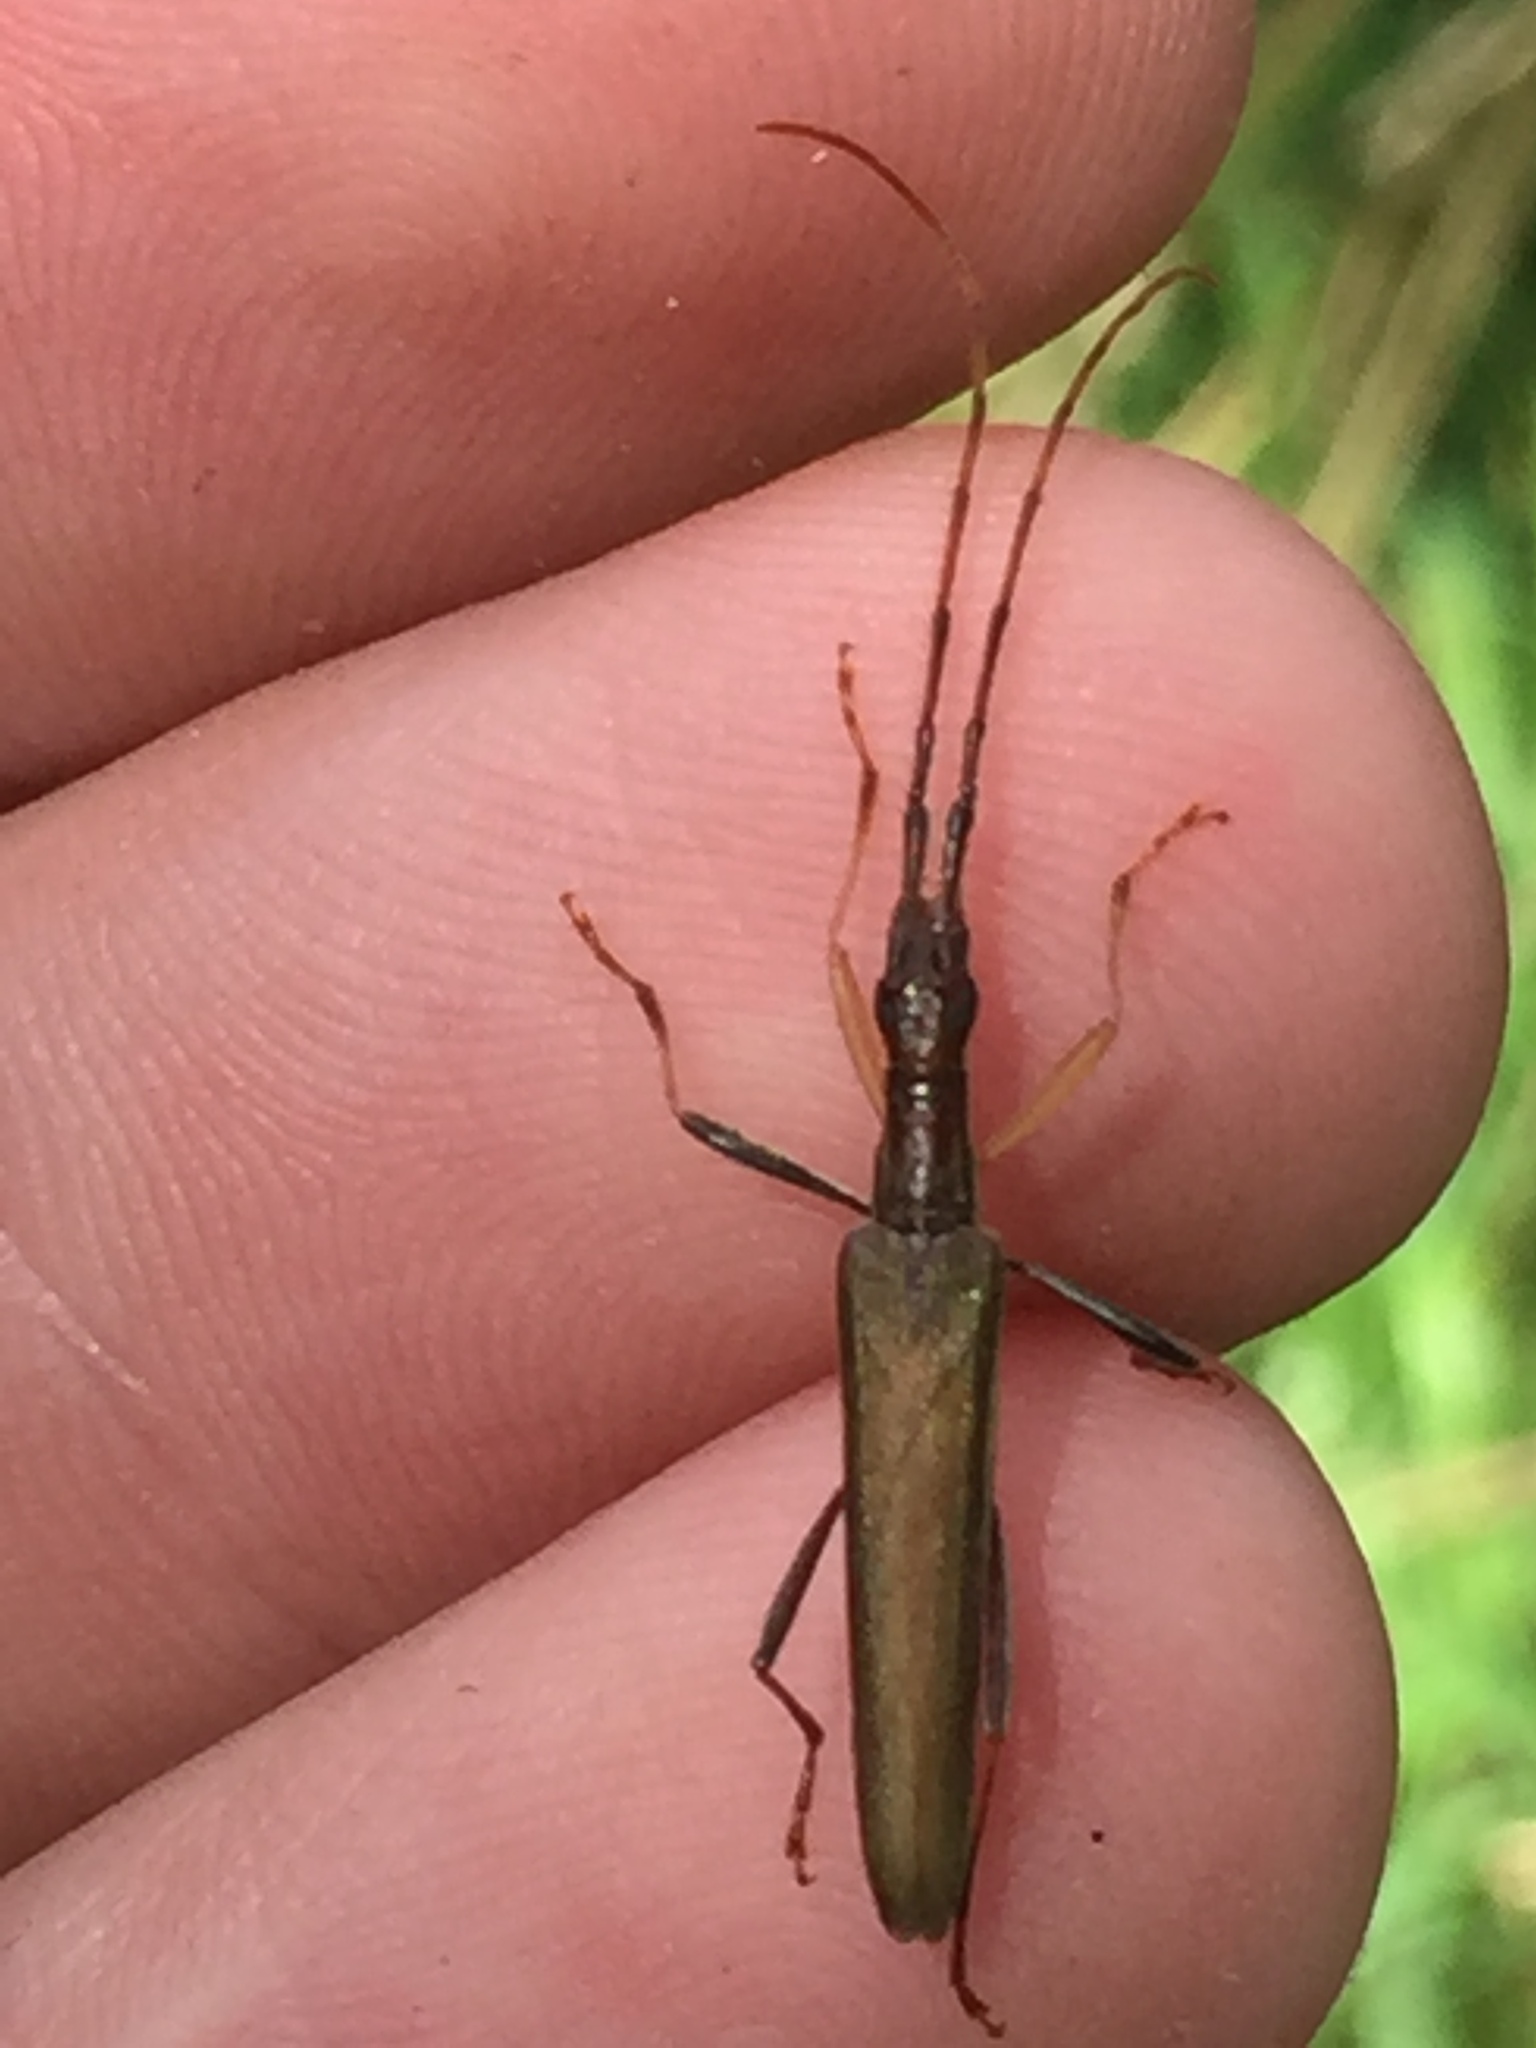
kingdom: Animalia
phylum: Arthropoda
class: Insecta
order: Coleoptera
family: Cerambycidae
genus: Stenopotes
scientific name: Stenopotes pallidus
